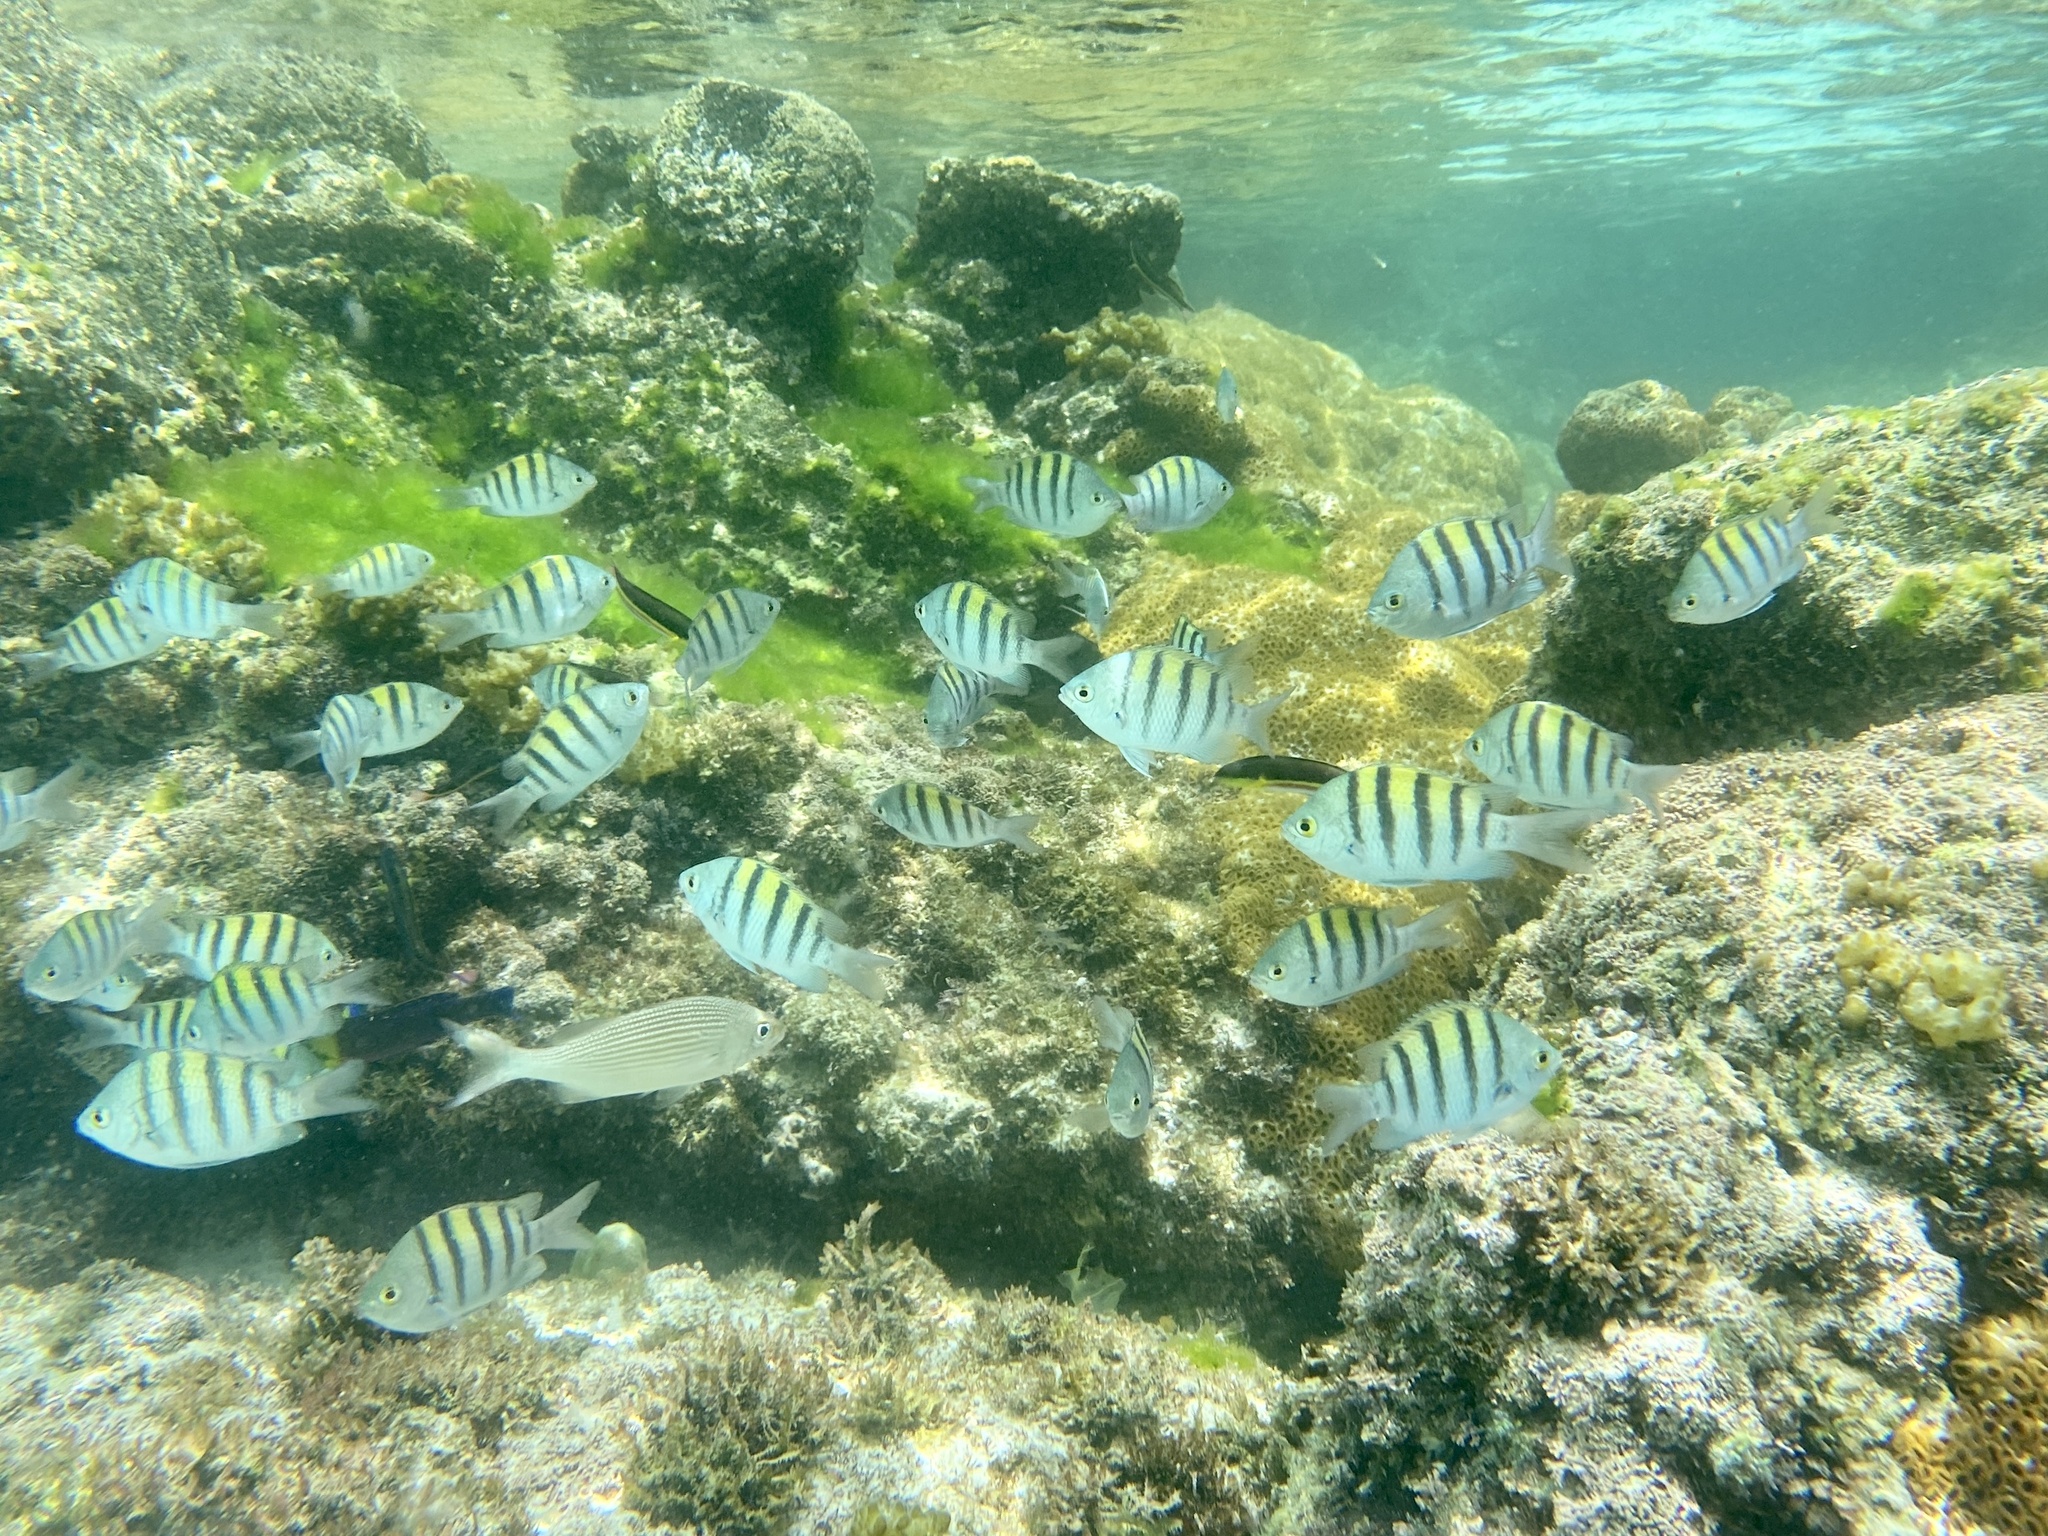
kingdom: Animalia
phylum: Chordata
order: Perciformes
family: Labridae
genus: Thalassoma
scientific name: Thalassoma lucasanum
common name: Cortez rainbow wrasse
